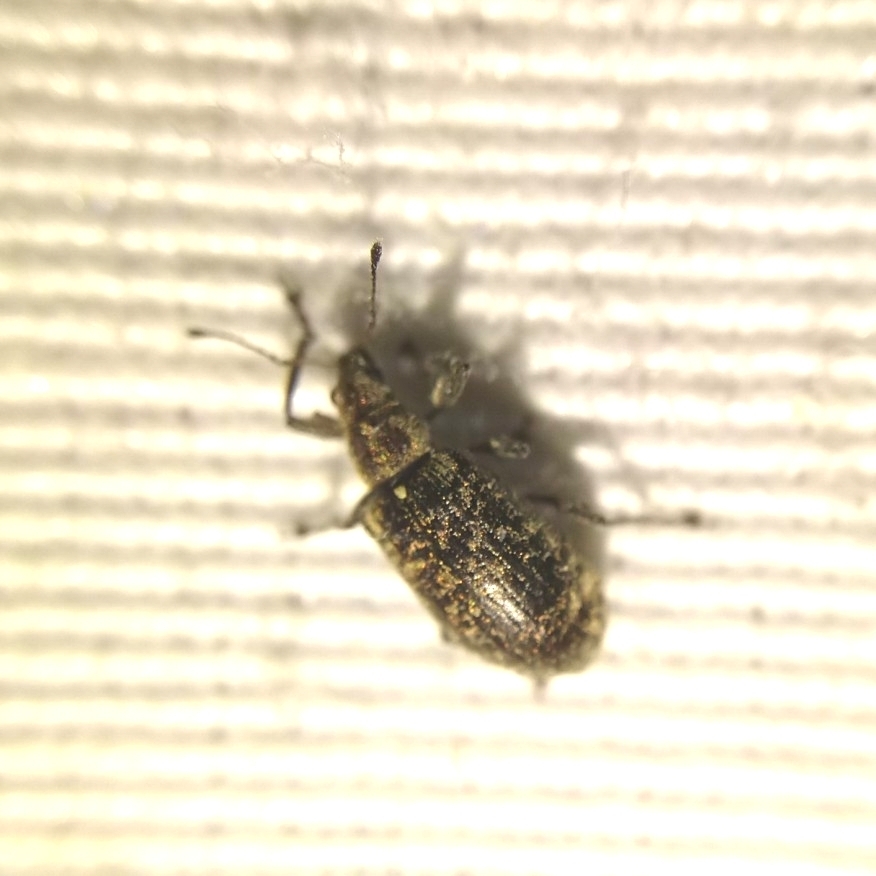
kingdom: Animalia
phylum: Arthropoda
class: Insecta
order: Coleoptera
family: Curculionidae
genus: Polydrusus
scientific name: Polydrusus pilosus
